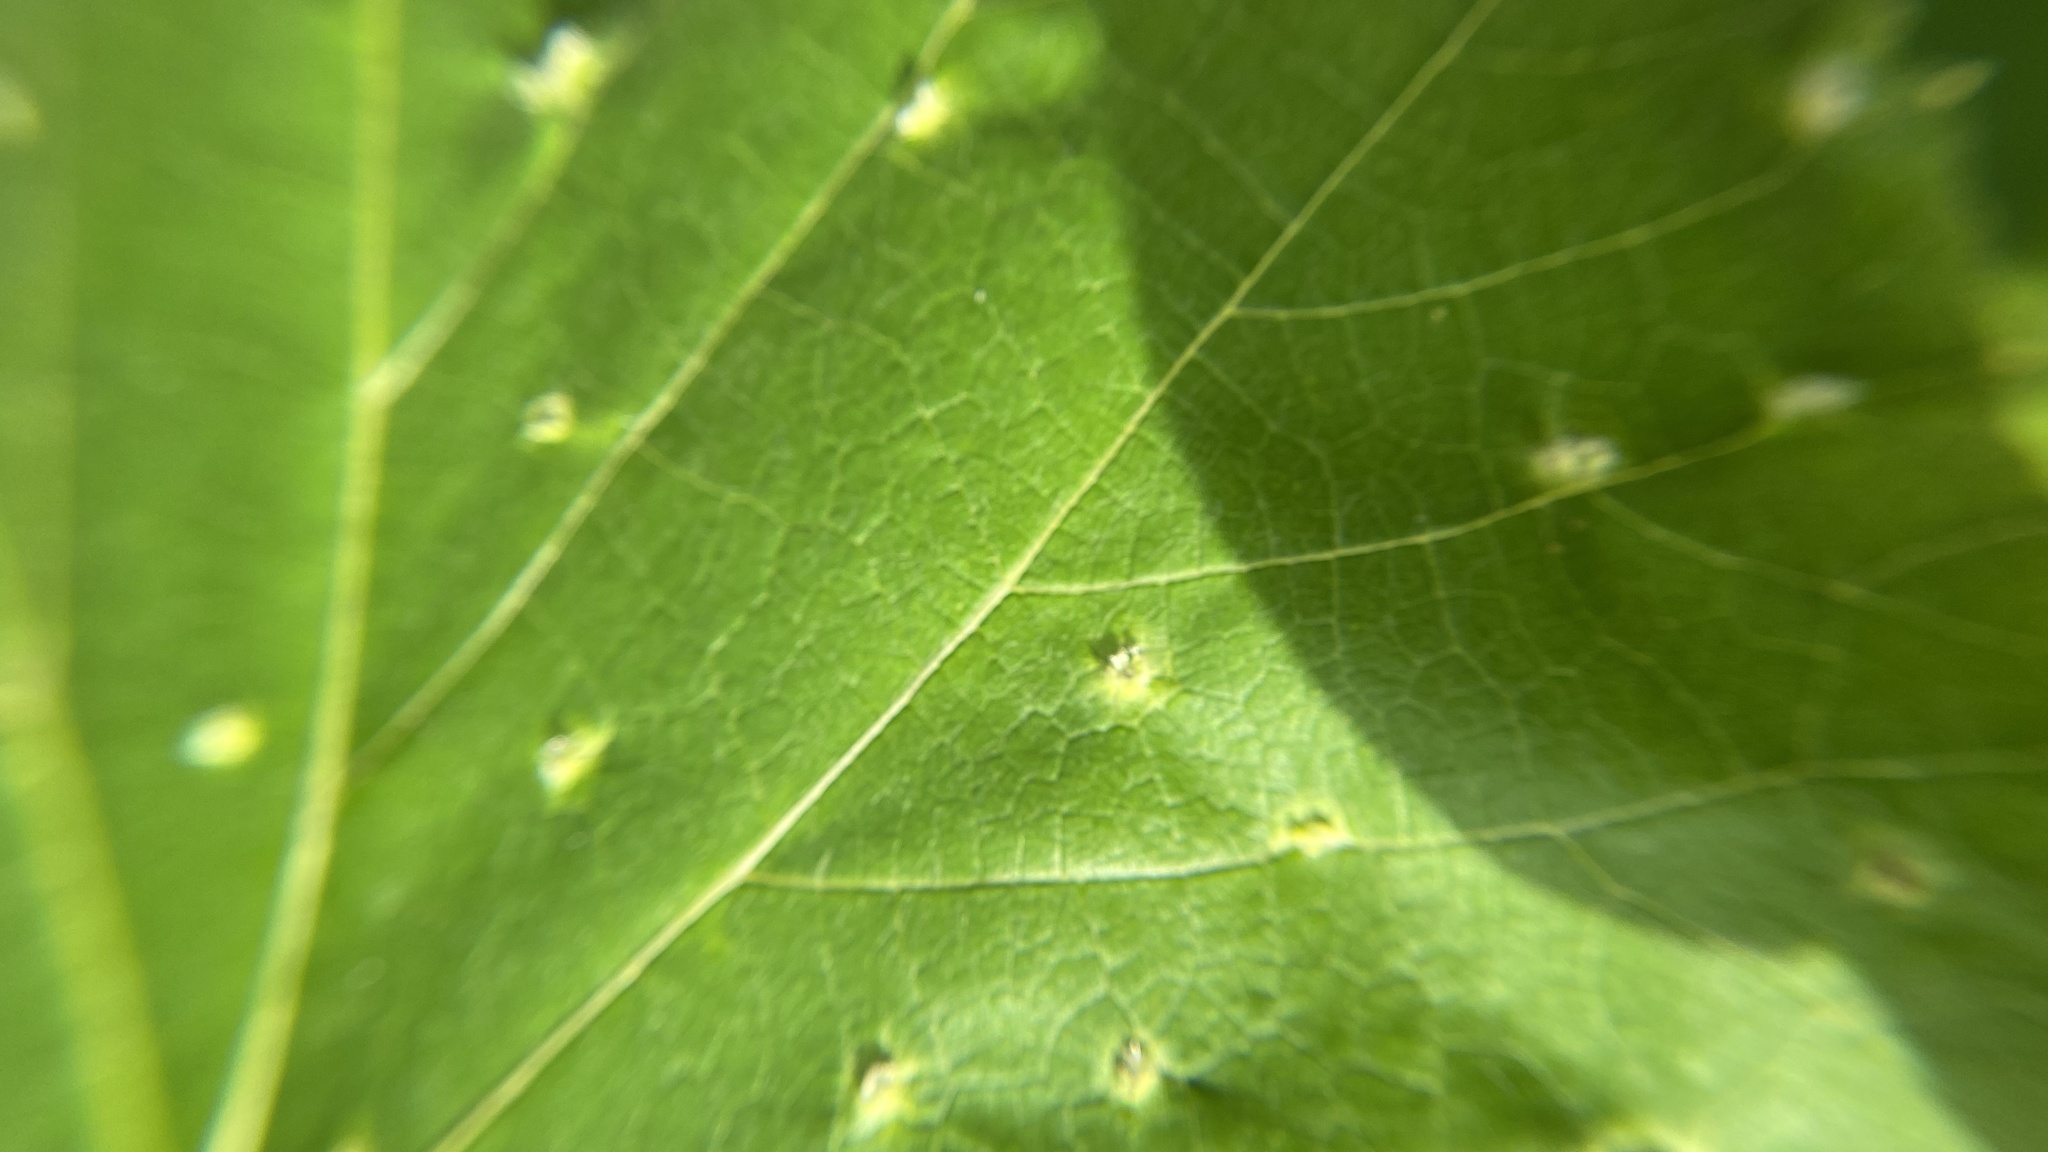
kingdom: Animalia
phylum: Arthropoda
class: Insecta
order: Hemiptera
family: Phylloxeridae
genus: Daktulosphaira
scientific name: Daktulosphaira vitifoliae
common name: Grape phylloxera
